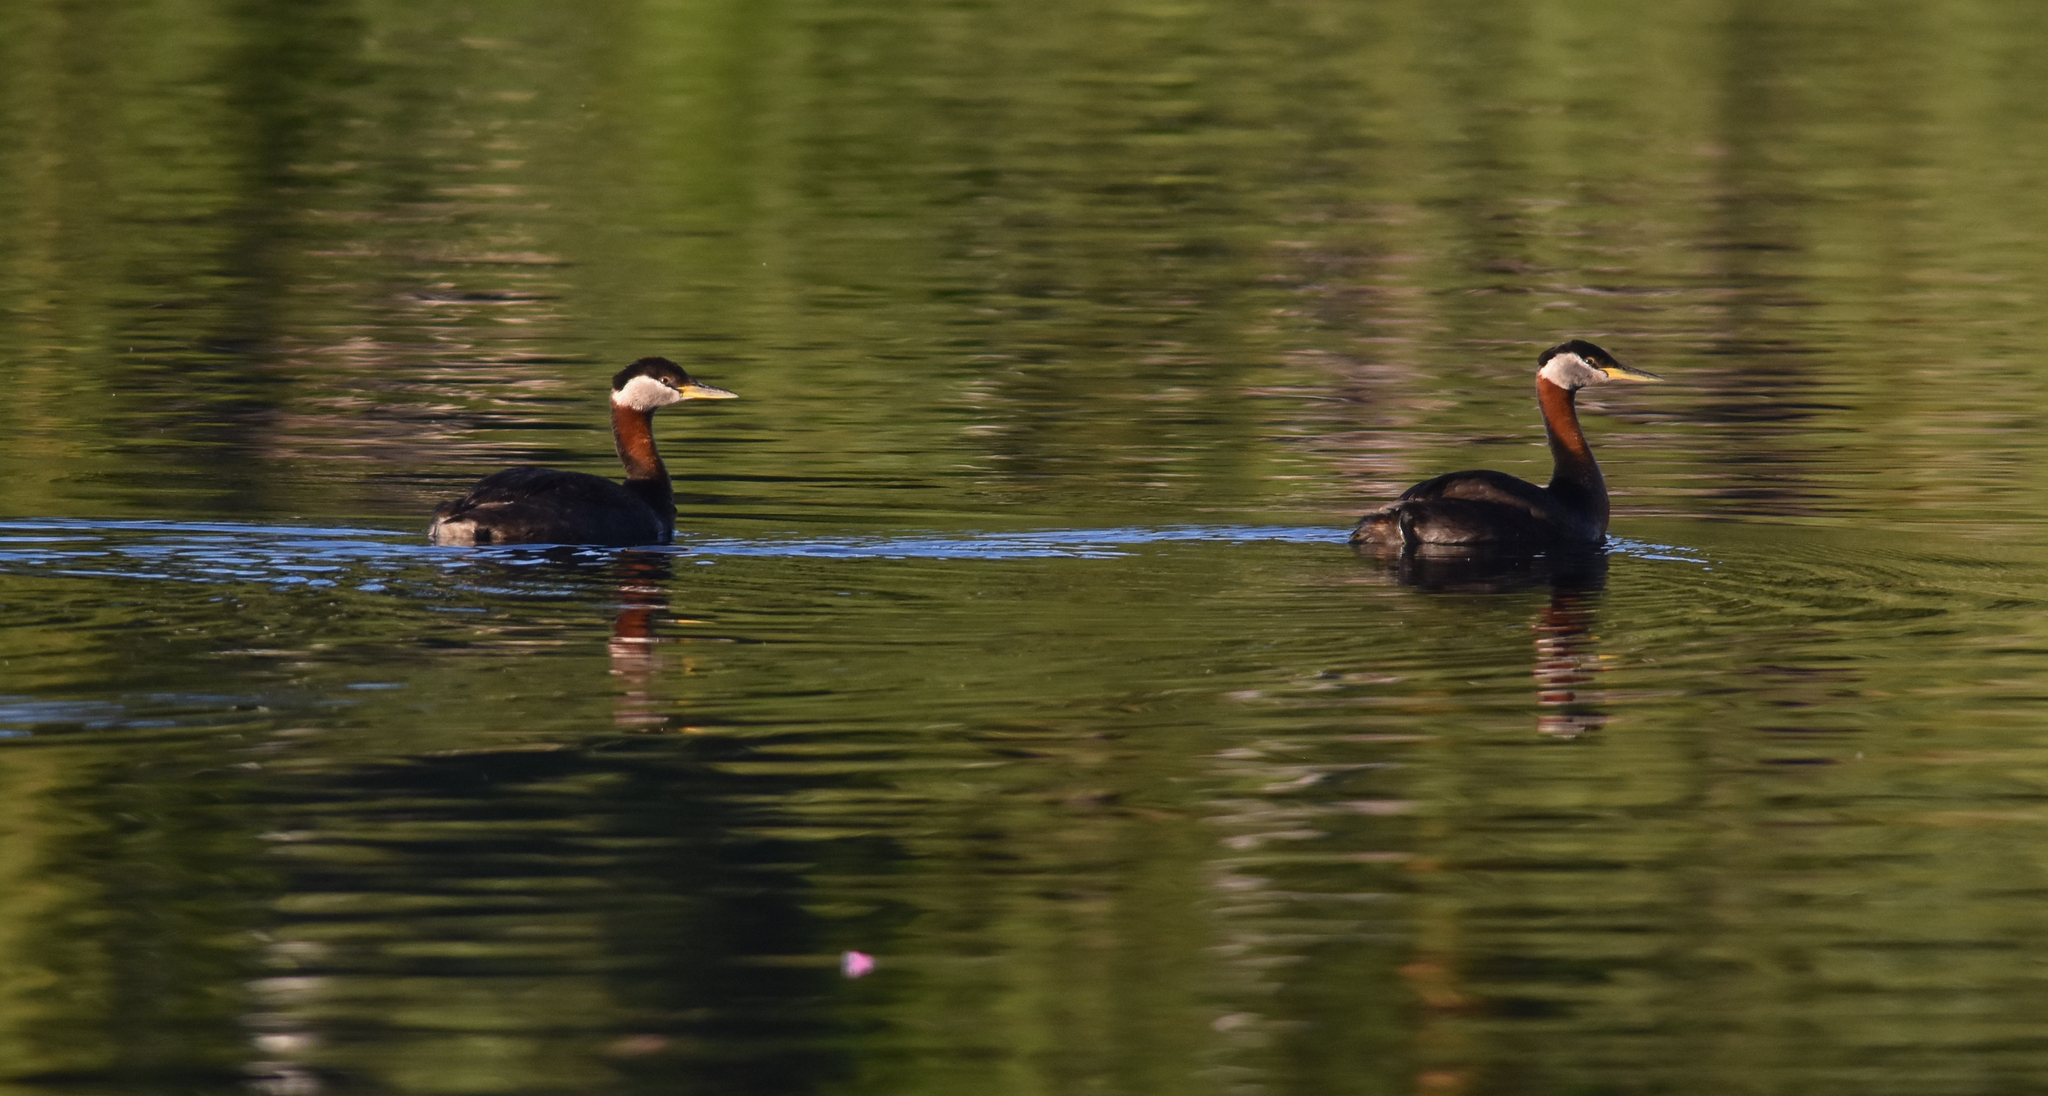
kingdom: Animalia
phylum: Chordata
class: Aves
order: Podicipediformes
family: Podicipedidae
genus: Podiceps
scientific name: Podiceps grisegena
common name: Red-necked grebe
